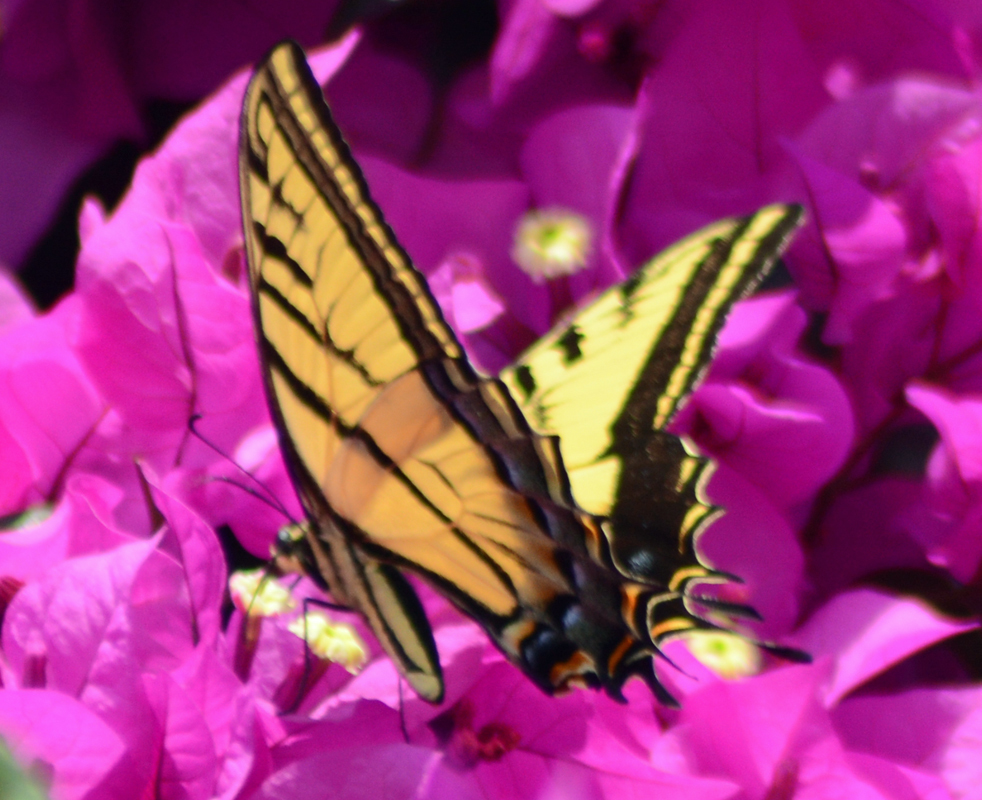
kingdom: Animalia
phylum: Arthropoda
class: Insecta
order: Lepidoptera
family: Papilionidae
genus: Papilio
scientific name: Papilio multicaudata
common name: Two-tailed tiger swallowtail
